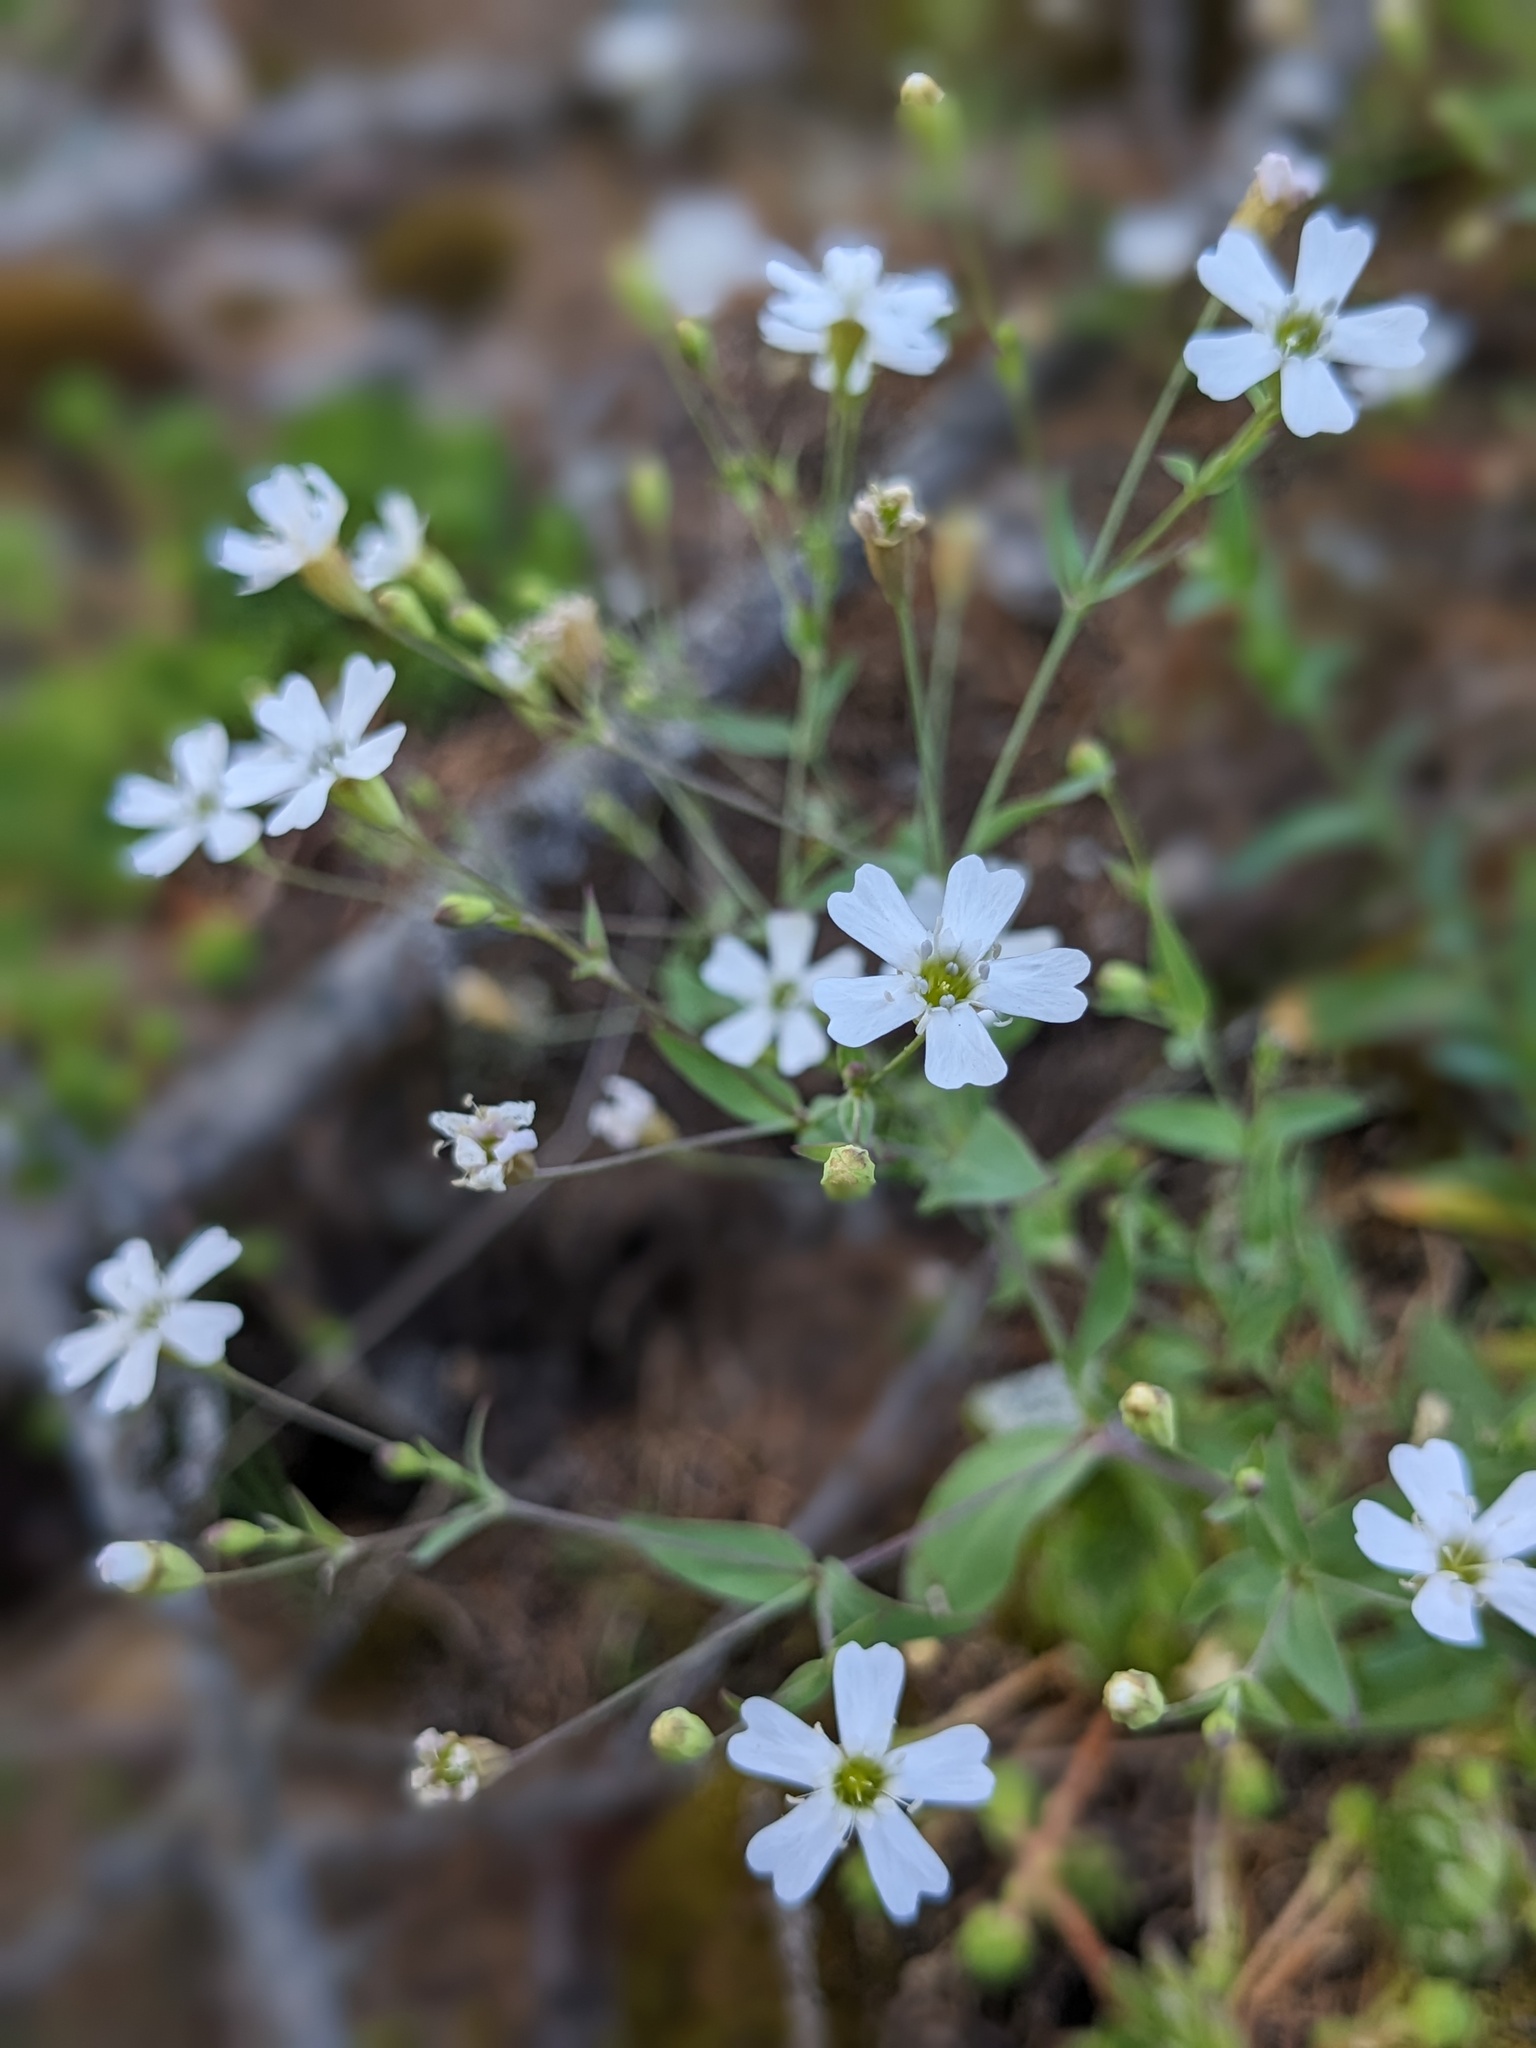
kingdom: Plantae
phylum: Tracheophyta
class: Magnoliopsida
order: Caryophyllales
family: Caryophyllaceae
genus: Atocion
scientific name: Atocion rupestre
